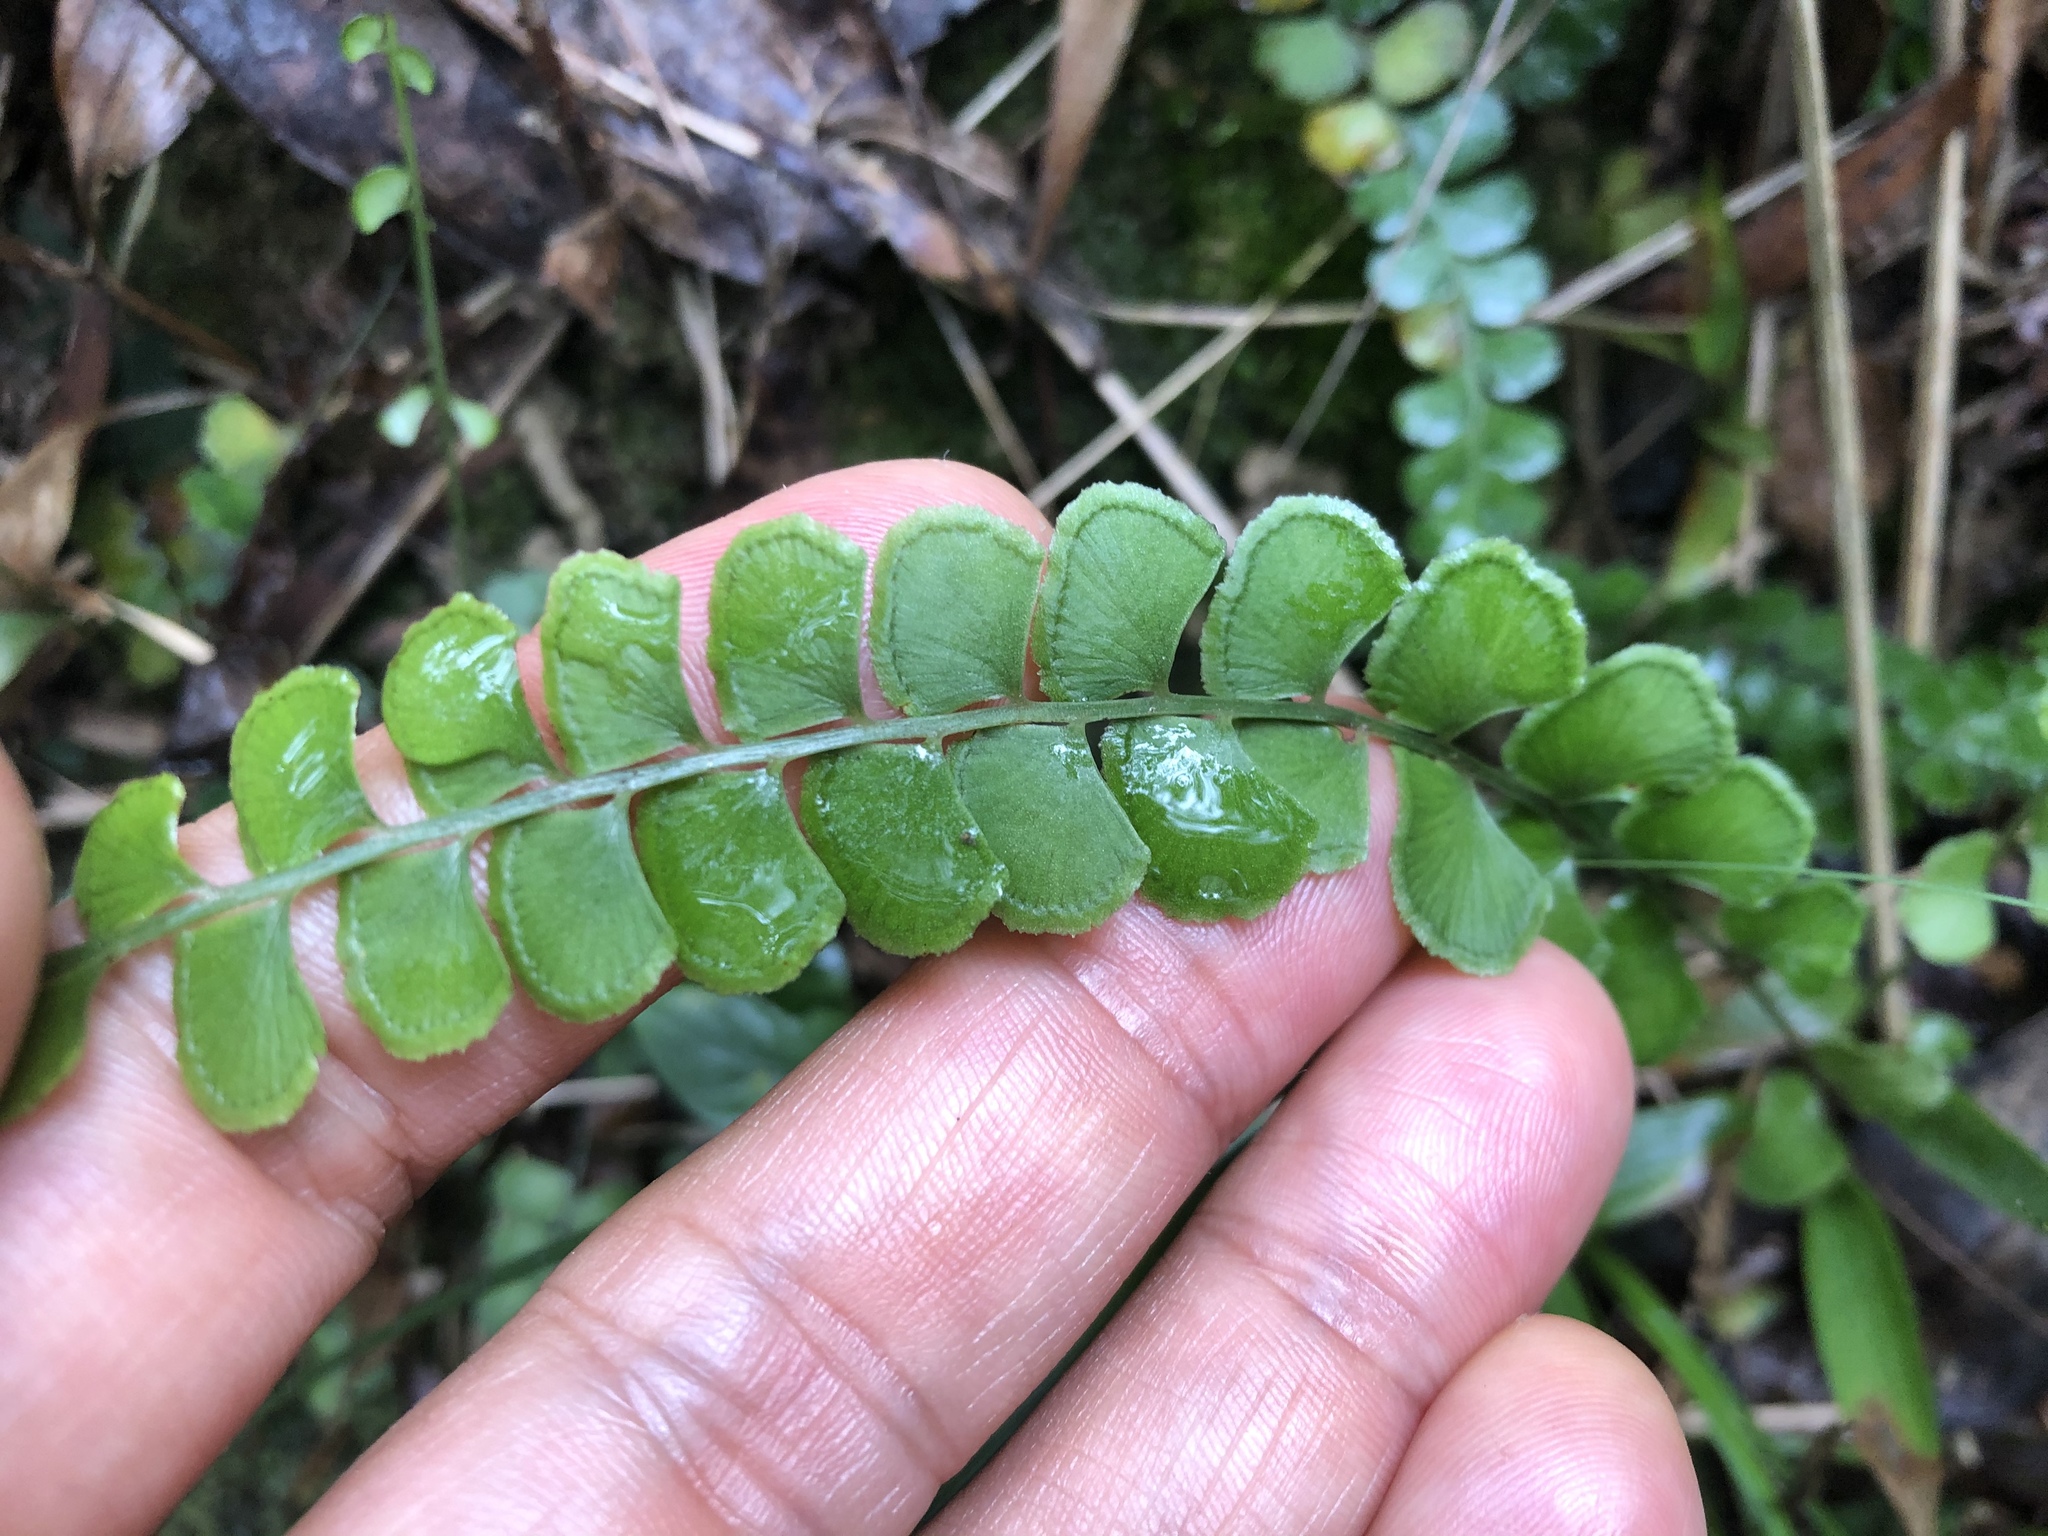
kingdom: Plantae
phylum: Tracheophyta
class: Polypodiopsida
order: Polypodiales
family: Lindsaeaceae
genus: Lindsaea
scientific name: Lindsaea orbiculata
